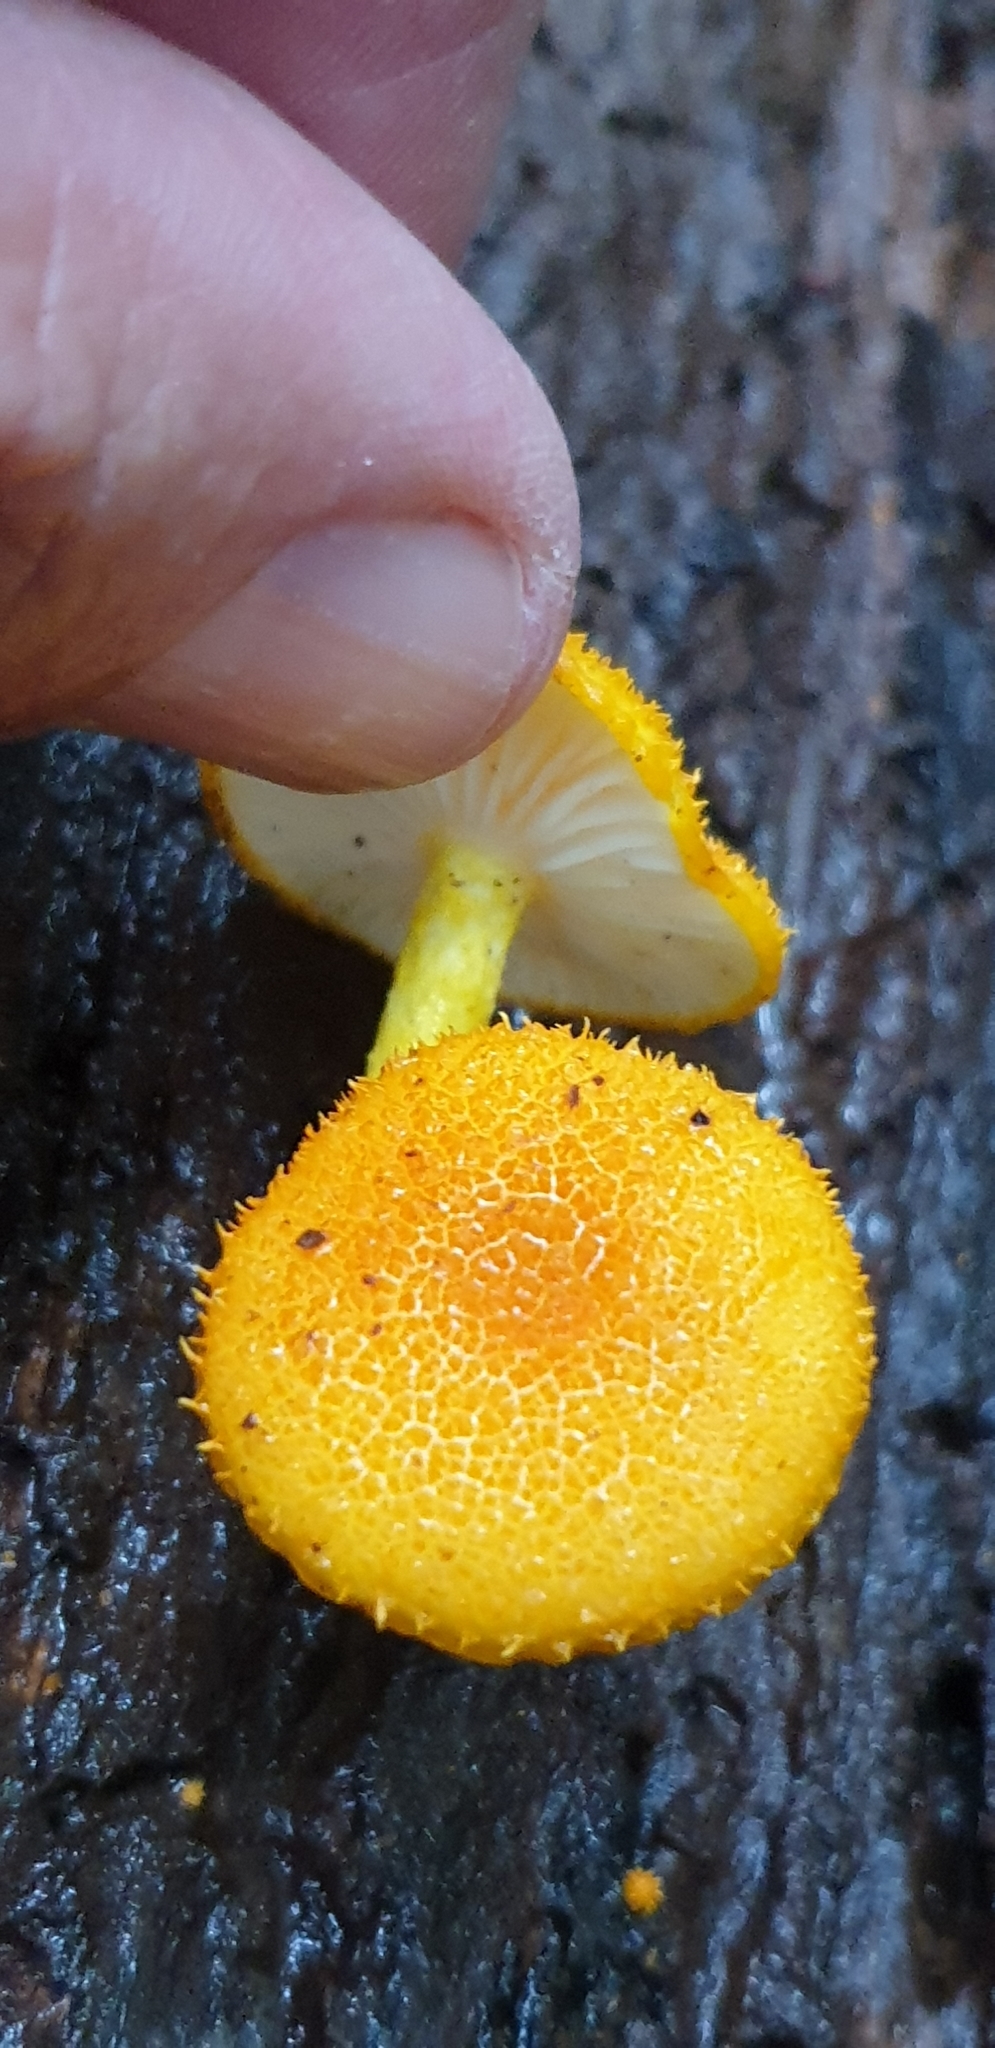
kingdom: Fungi
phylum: Basidiomycota
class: Agaricomycetes
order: Agaricales
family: Physalacriaceae
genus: Cyptotrama
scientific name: Cyptotrama asprata
